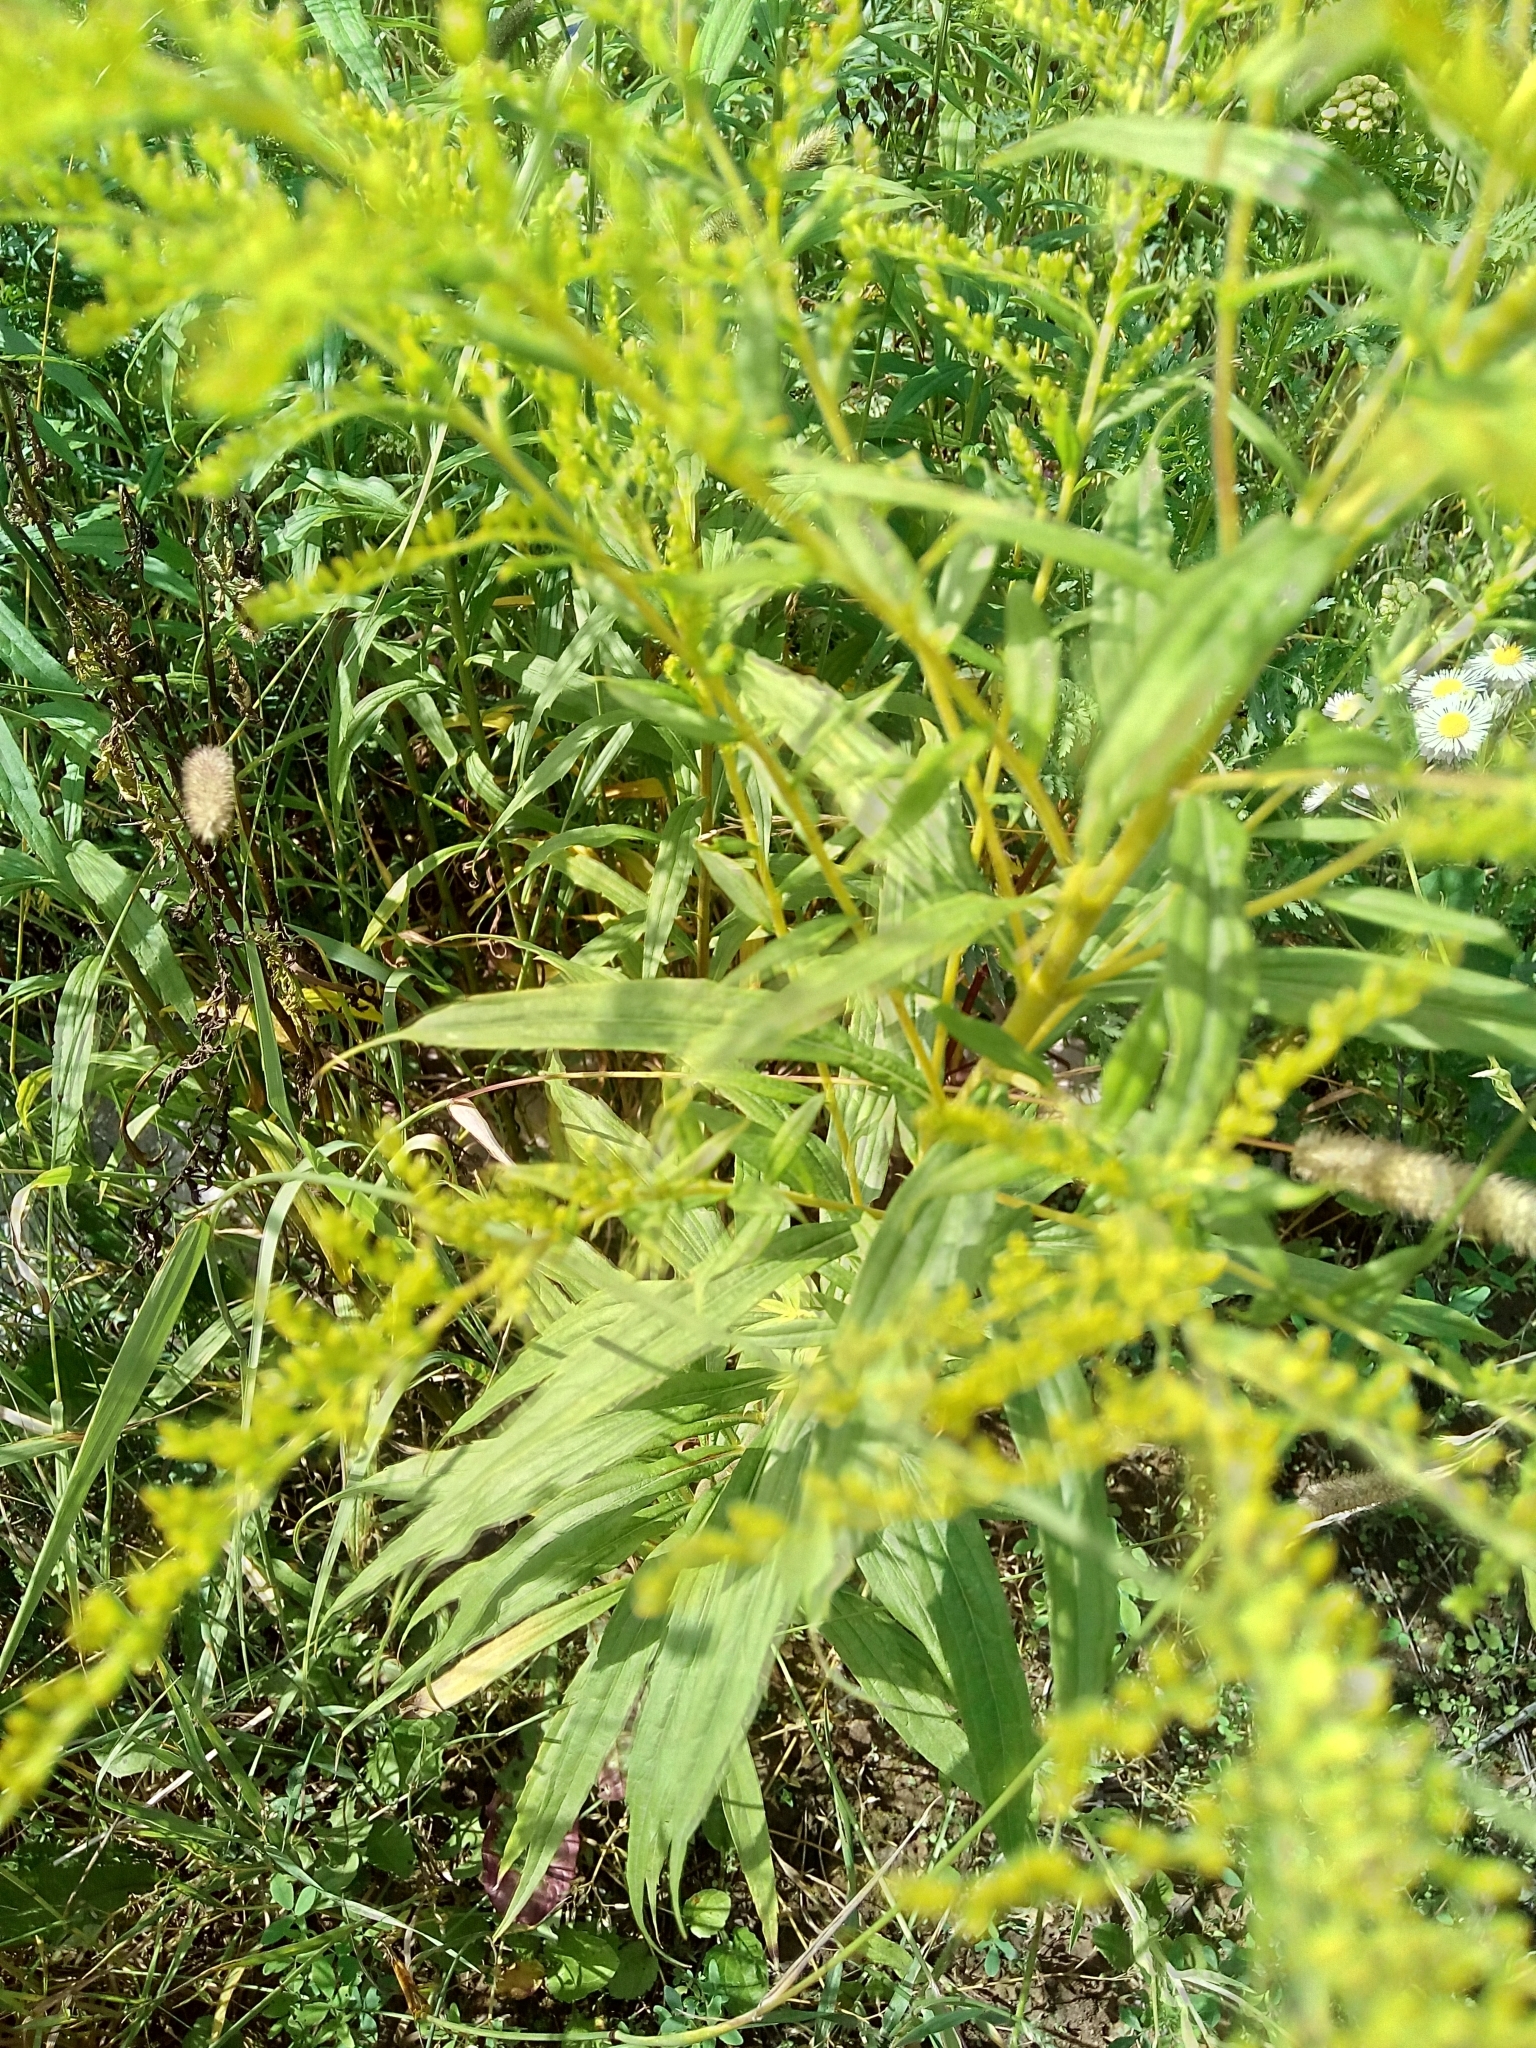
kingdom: Plantae
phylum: Tracheophyta
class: Magnoliopsida
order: Asterales
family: Asteraceae
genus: Solidago
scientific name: Solidago canadensis
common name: Canada goldenrod
